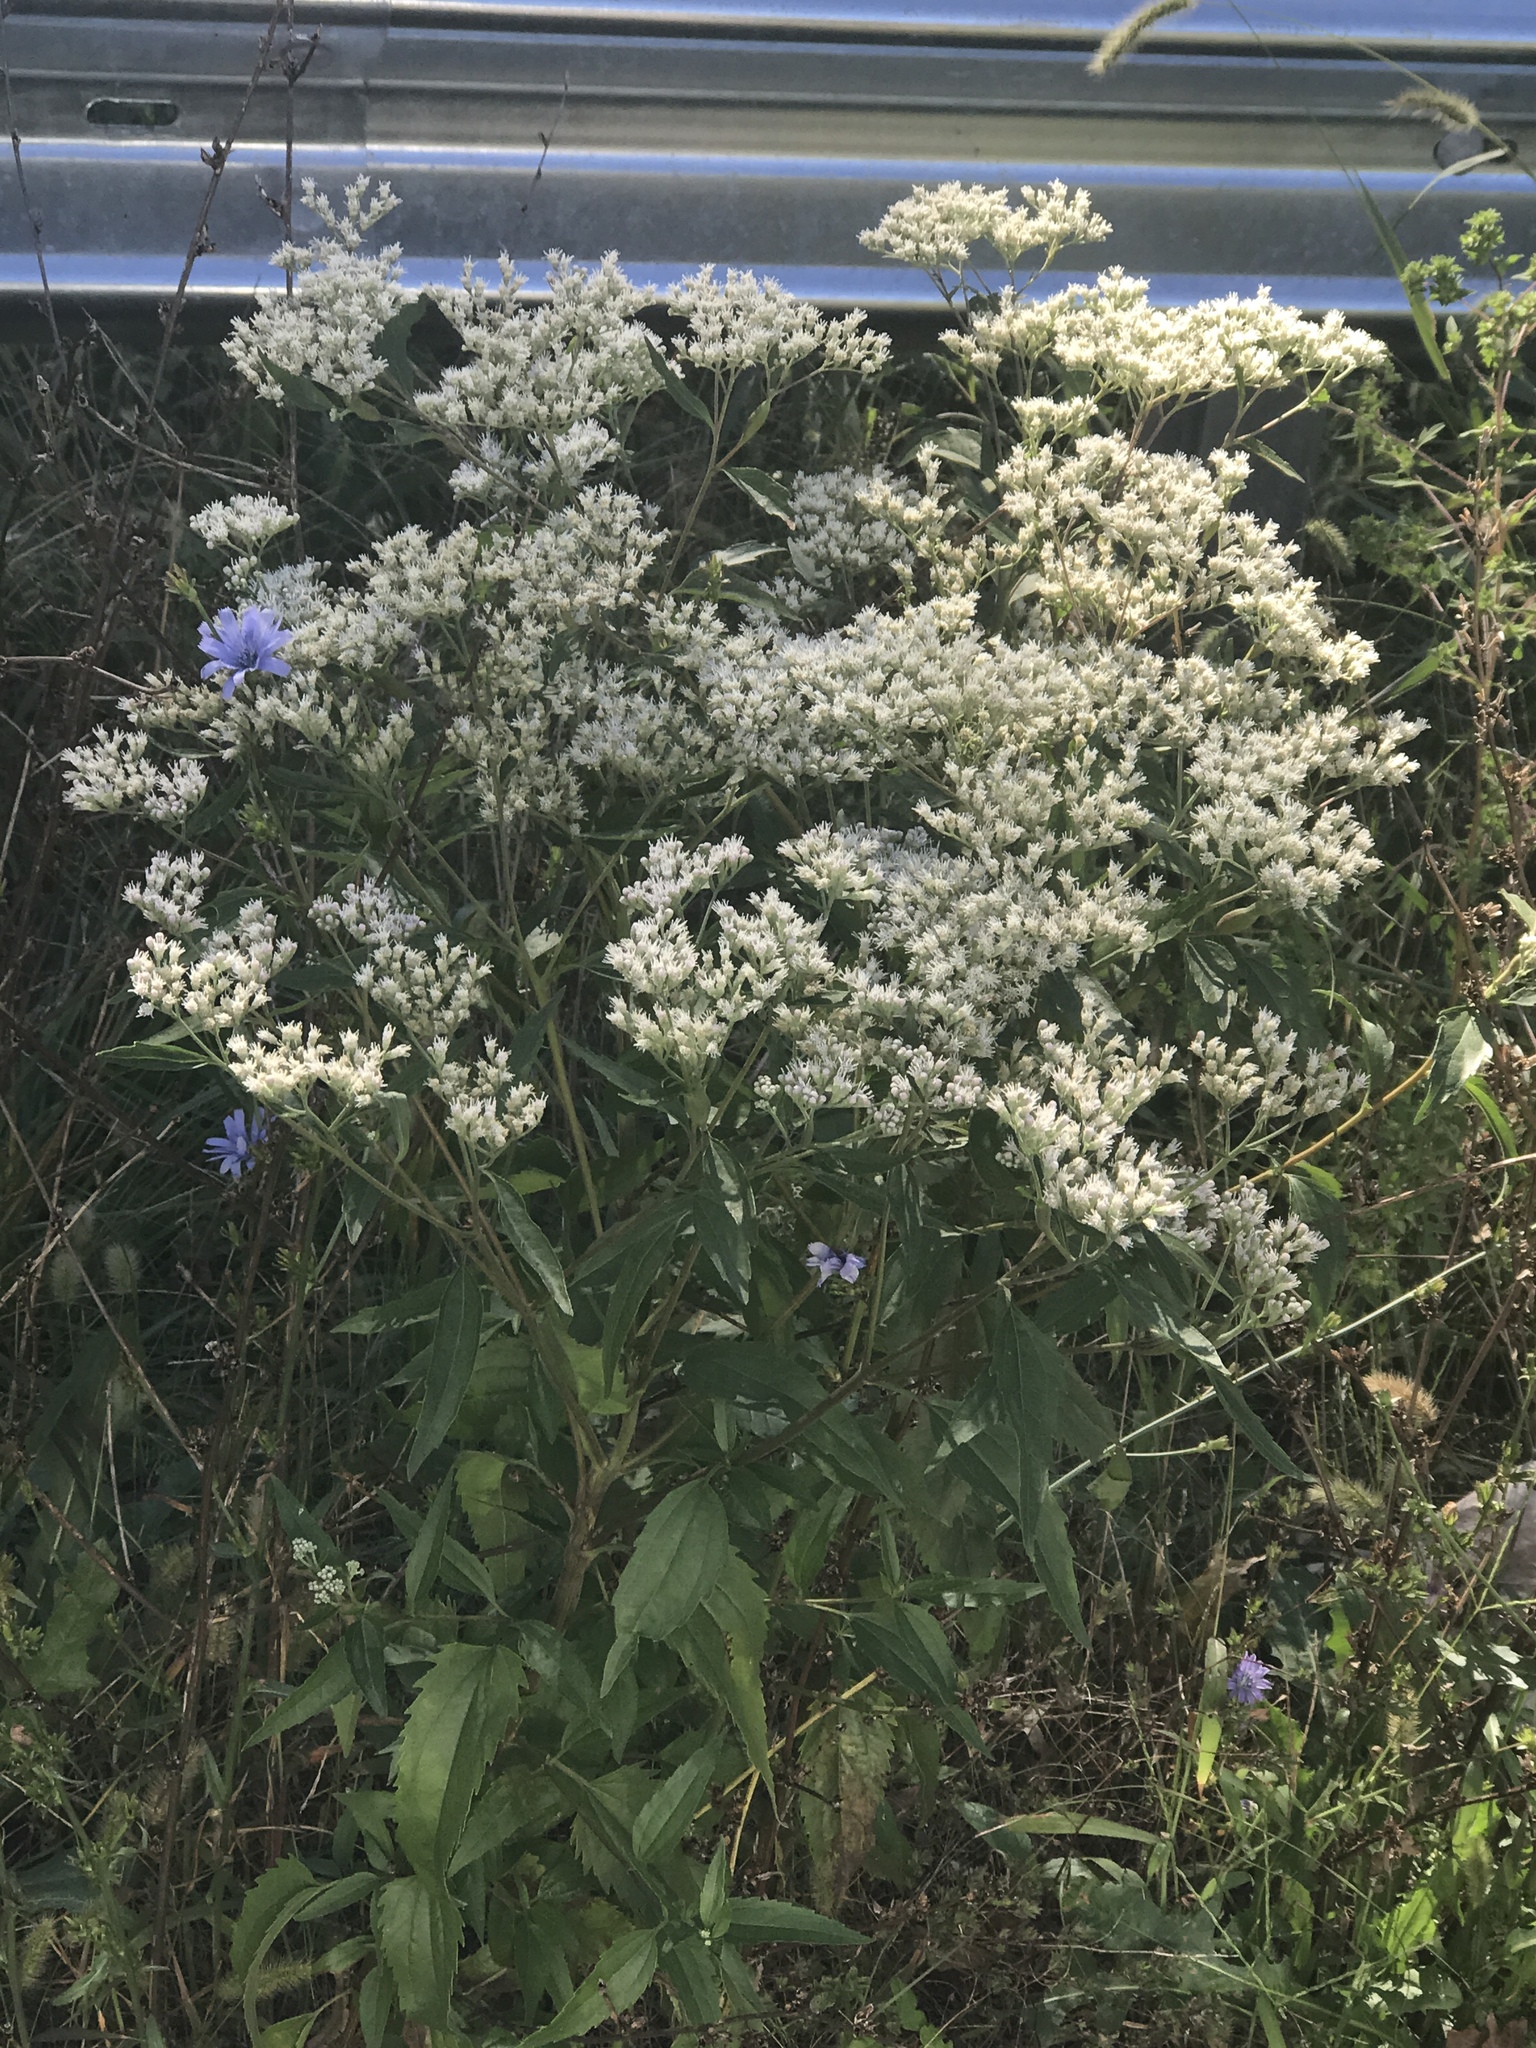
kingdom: Plantae
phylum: Tracheophyta
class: Magnoliopsida
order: Asterales
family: Asteraceae
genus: Eupatorium
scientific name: Eupatorium serotinum
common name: Late boneset
